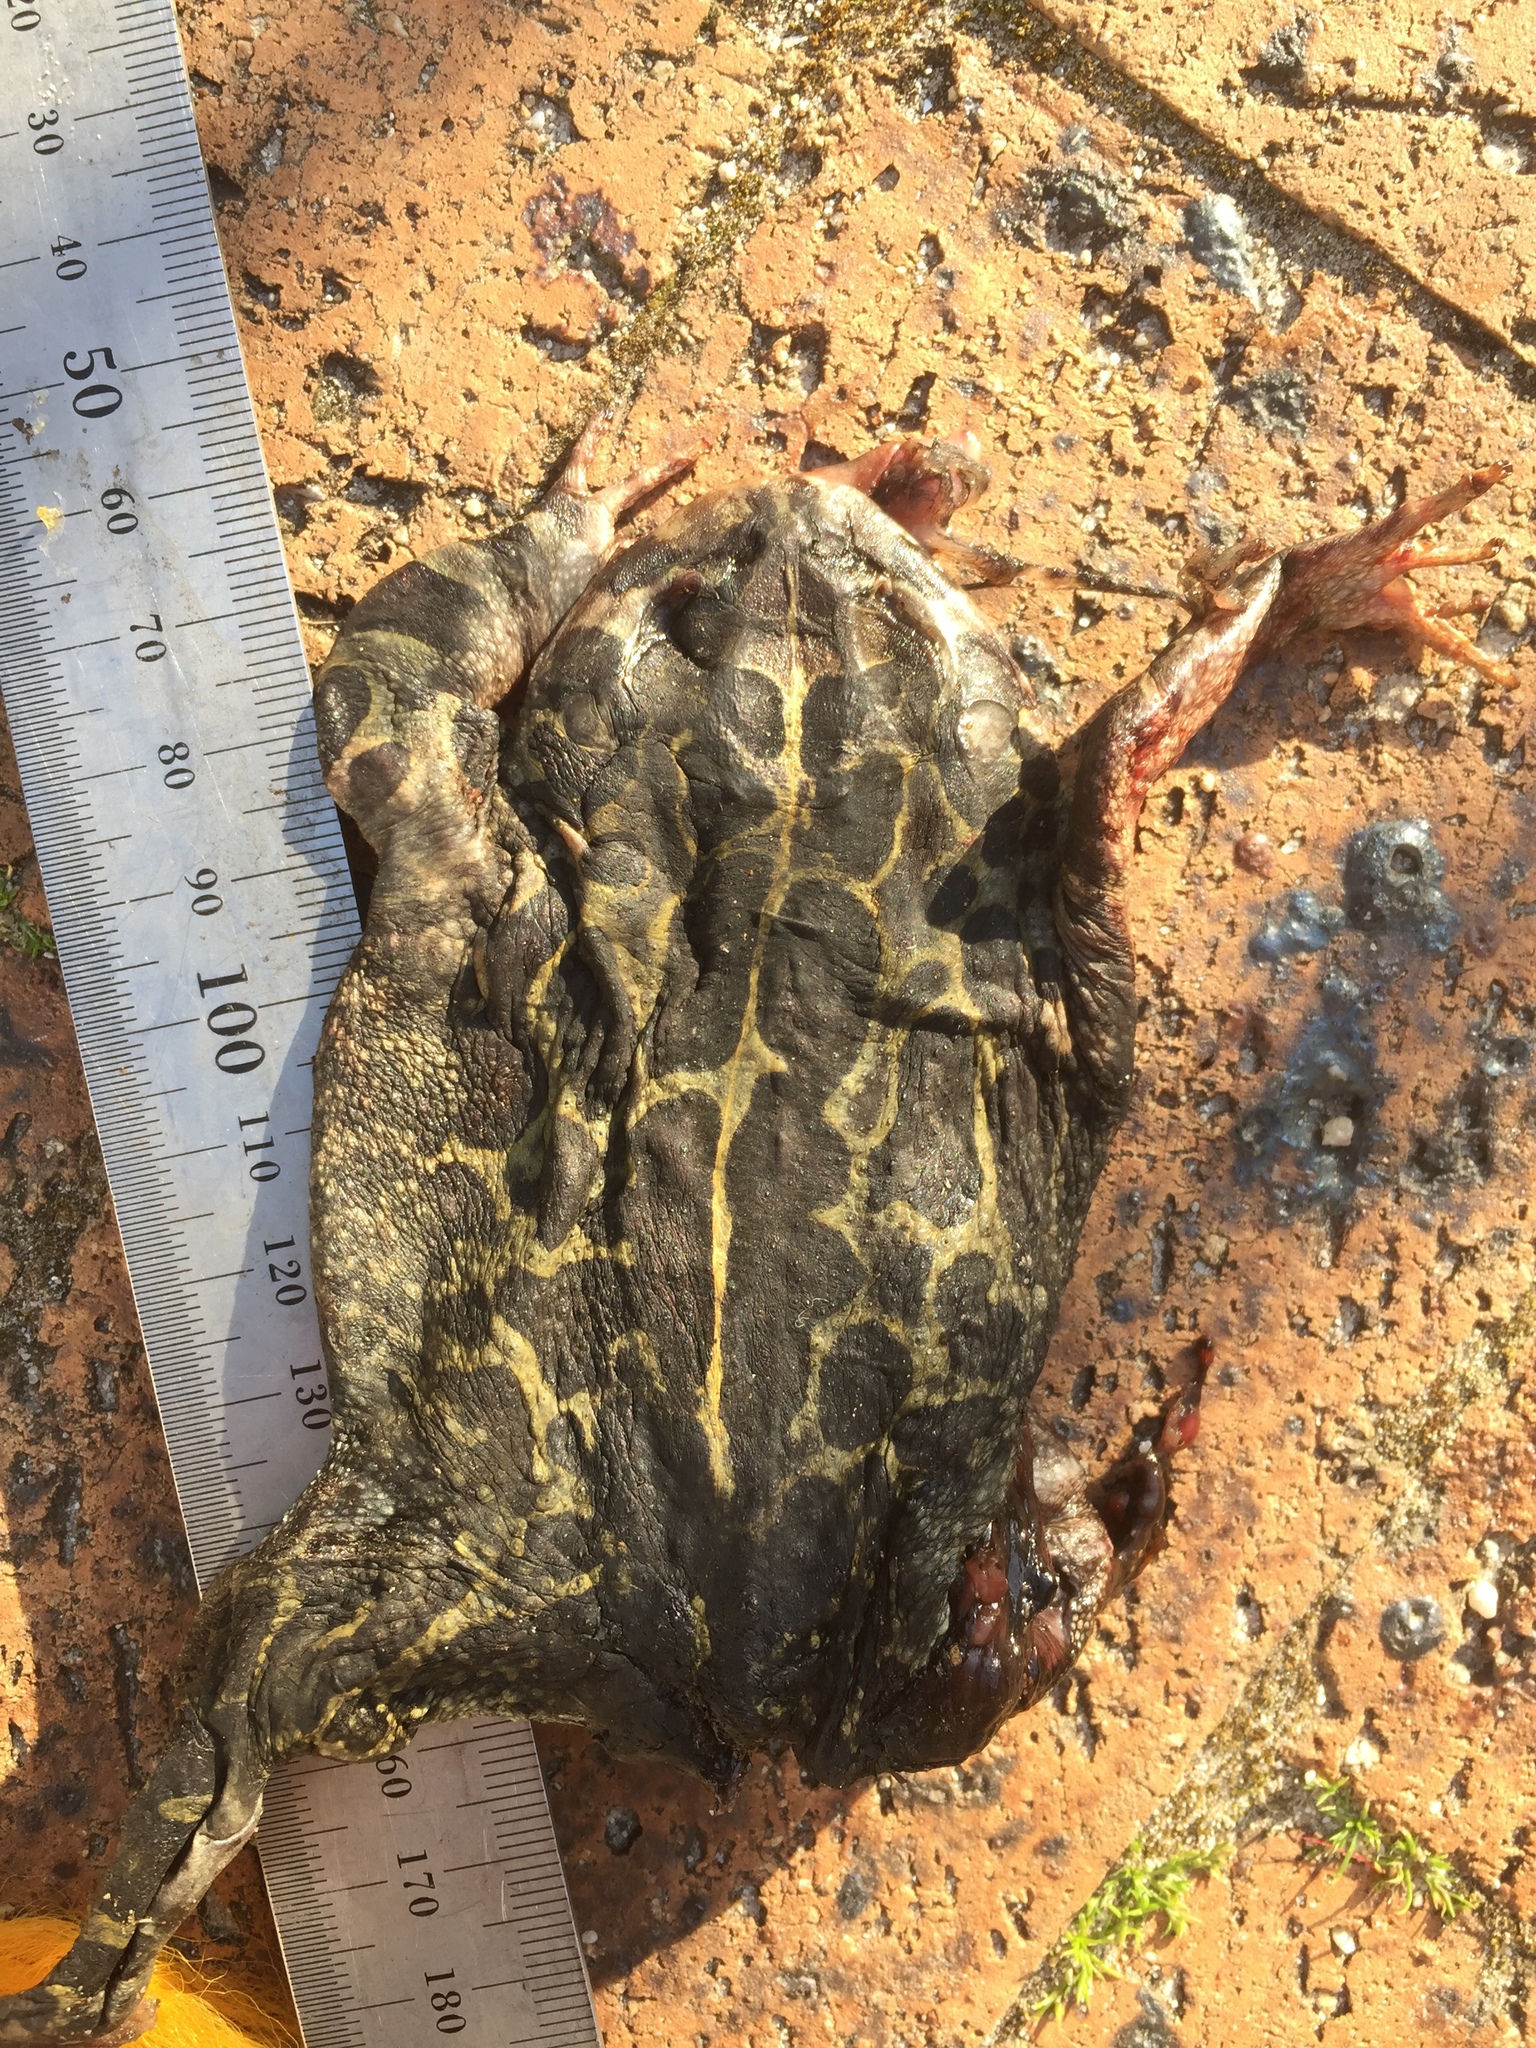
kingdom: Animalia
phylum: Chordata
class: Amphibia
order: Anura
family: Bufonidae
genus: Sclerophrys
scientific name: Sclerophrys pantherina
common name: Panther toad
